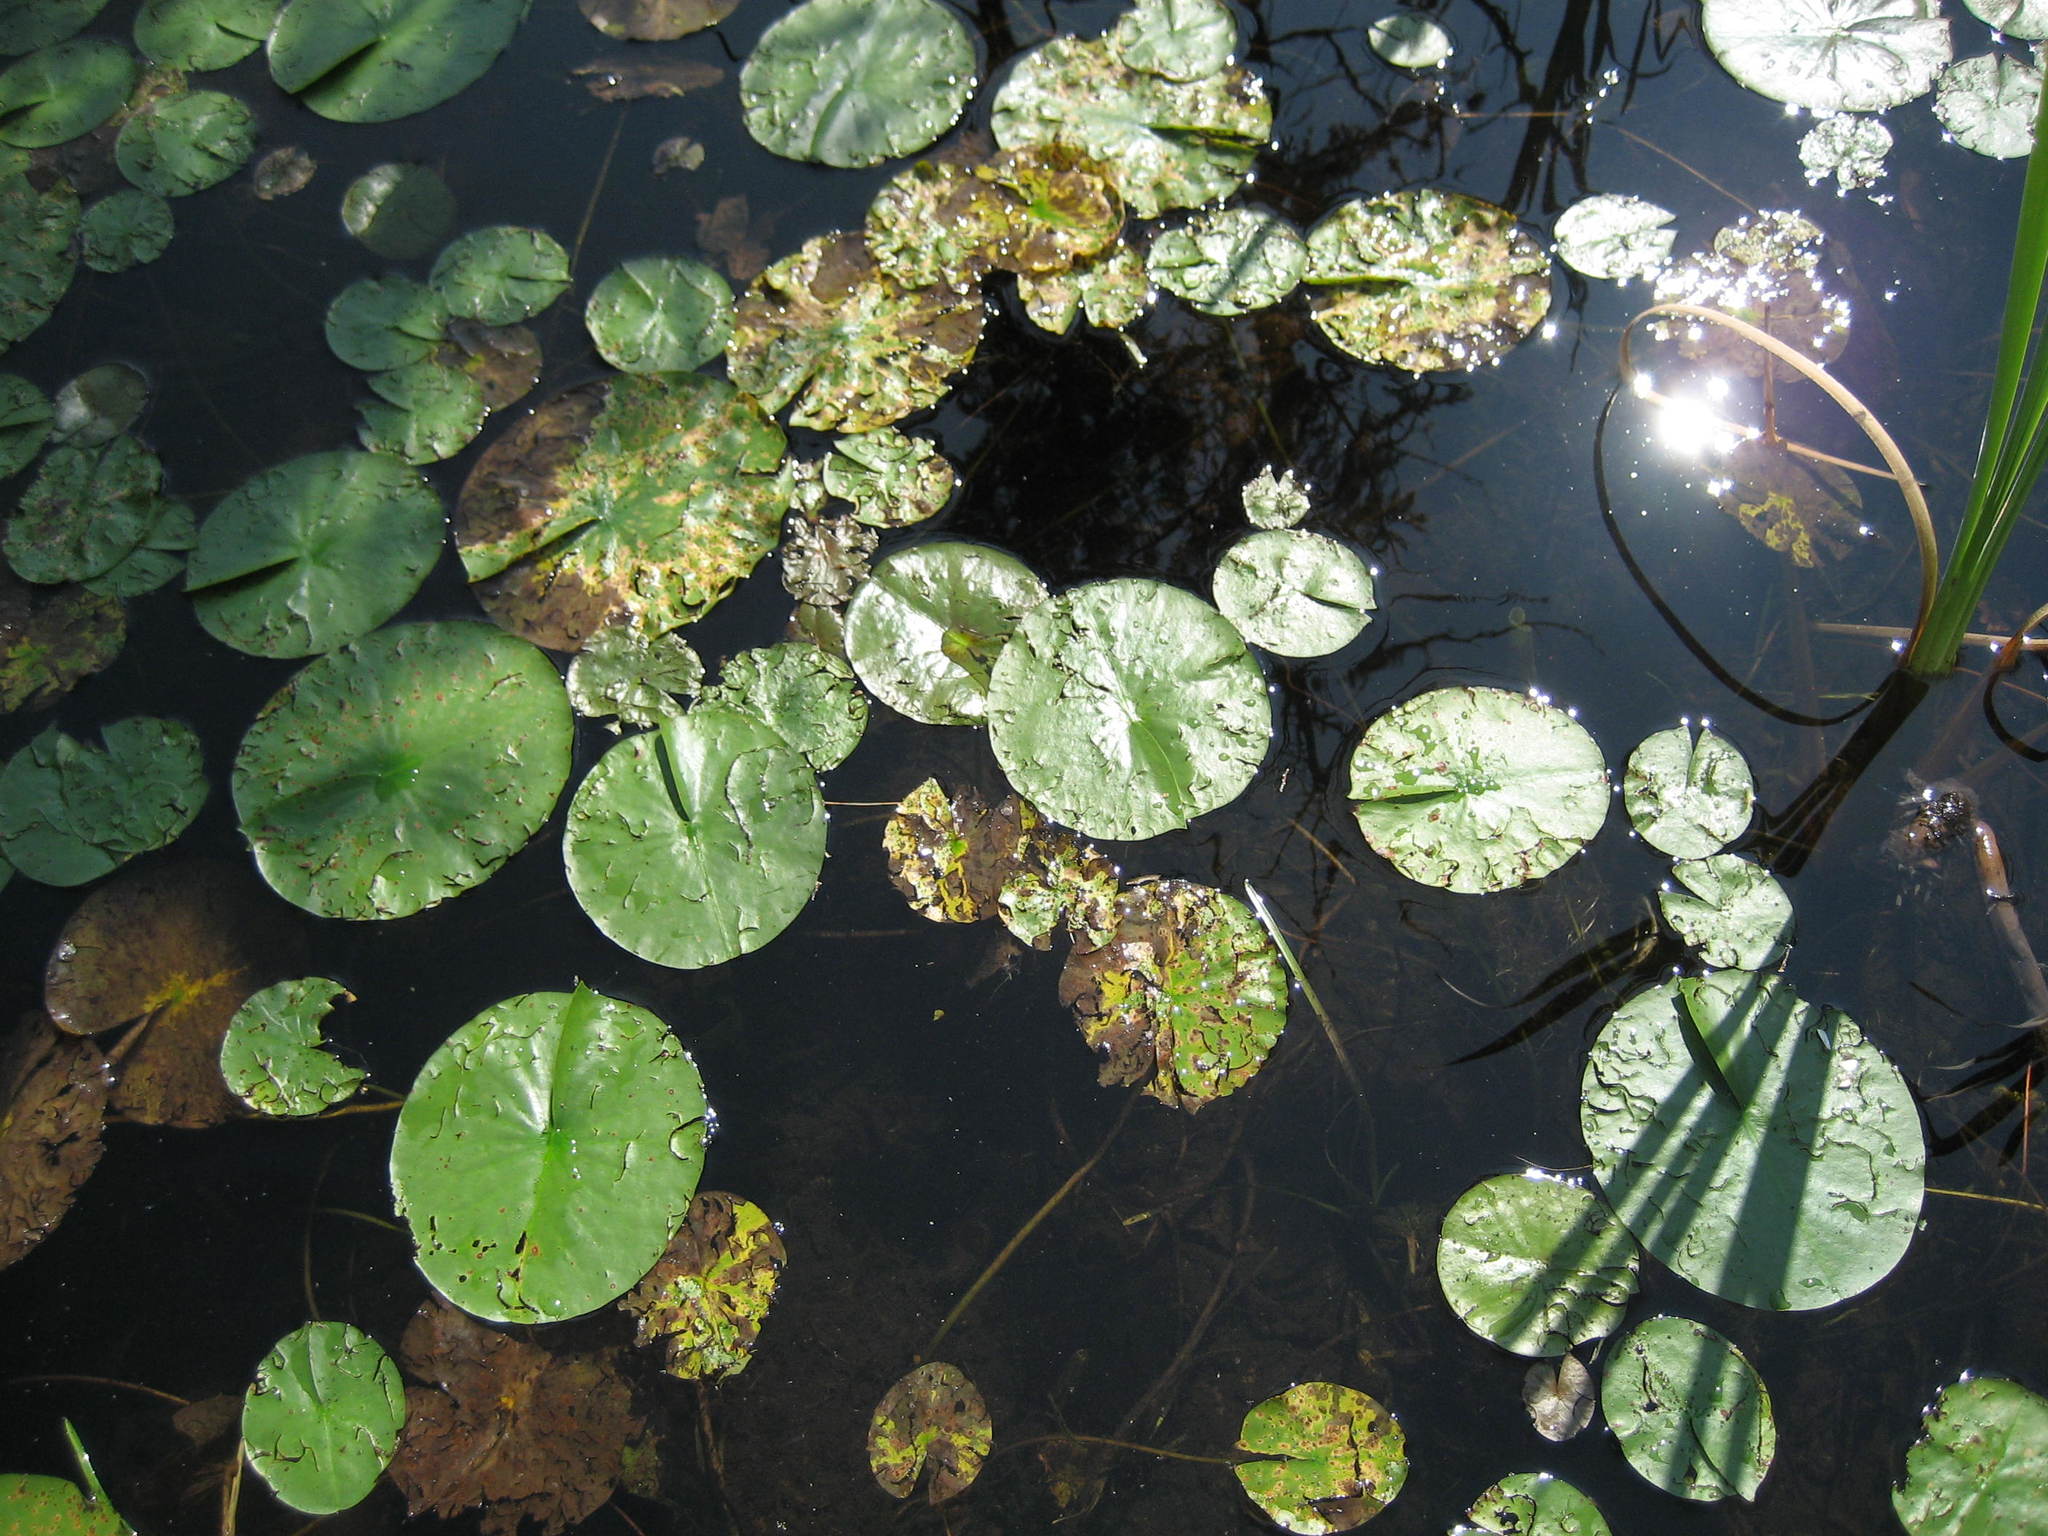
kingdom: Plantae
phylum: Tracheophyta
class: Magnoliopsida
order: Nymphaeales
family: Nymphaeaceae
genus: Nymphaea
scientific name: Nymphaea odorata
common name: Fragrant water-lily
